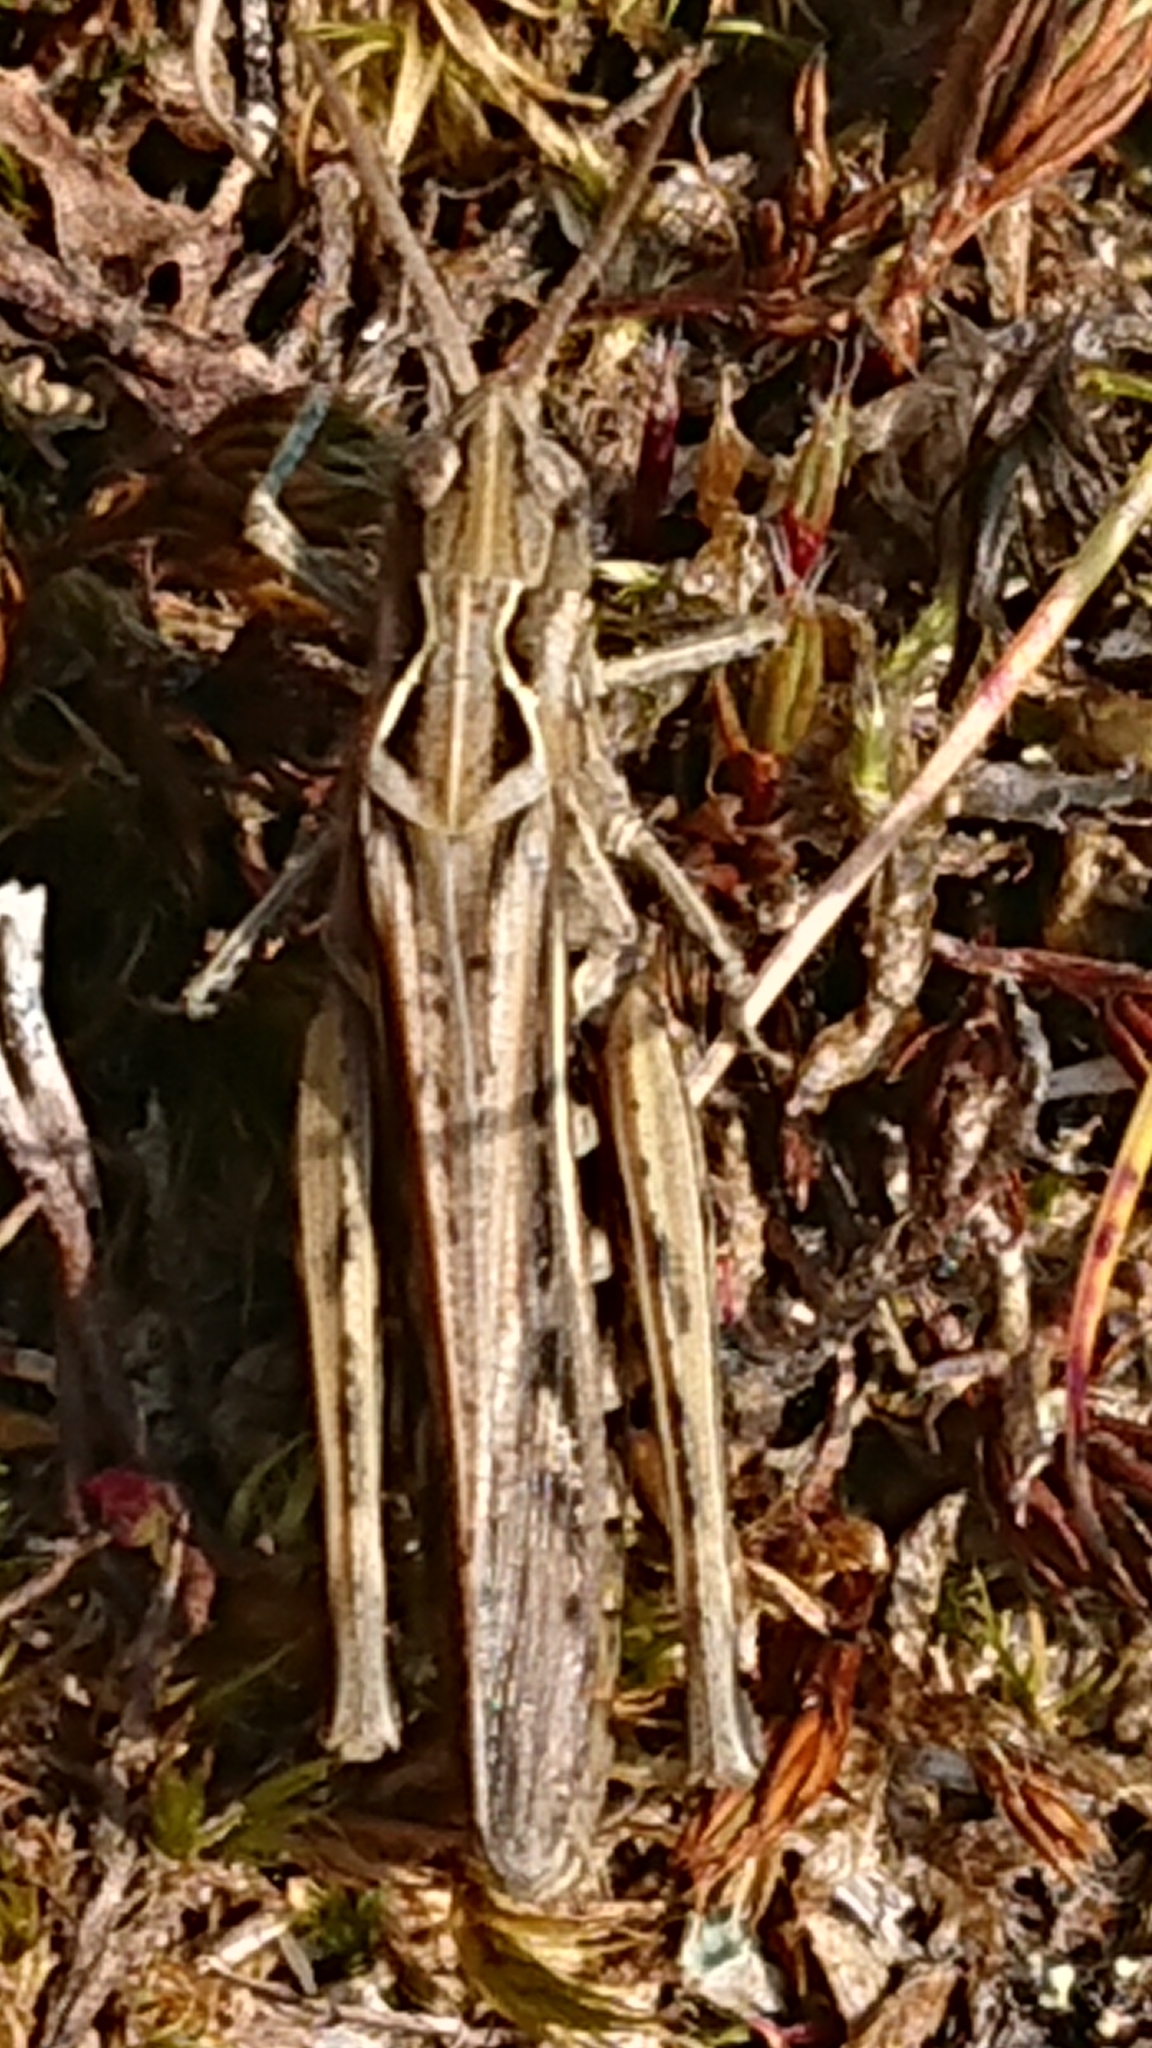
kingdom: Animalia
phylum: Arthropoda
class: Insecta
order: Orthoptera
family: Acrididae
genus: Chorthippus
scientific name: Chorthippus brunneus
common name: Field grasshopper
